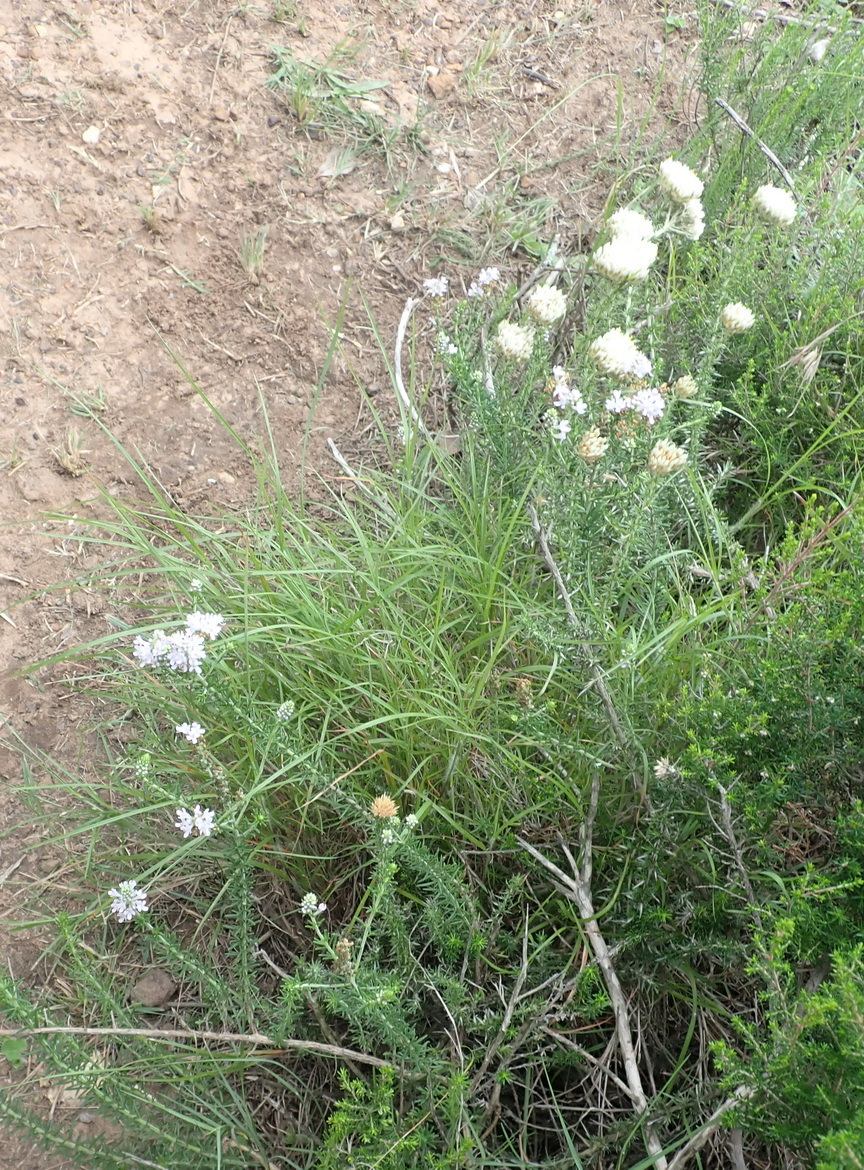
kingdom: Plantae
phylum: Tracheophyta
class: Magnoliopsida
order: Lamiales
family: Scrophulariaceae
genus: Selago
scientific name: Selago cinerea
